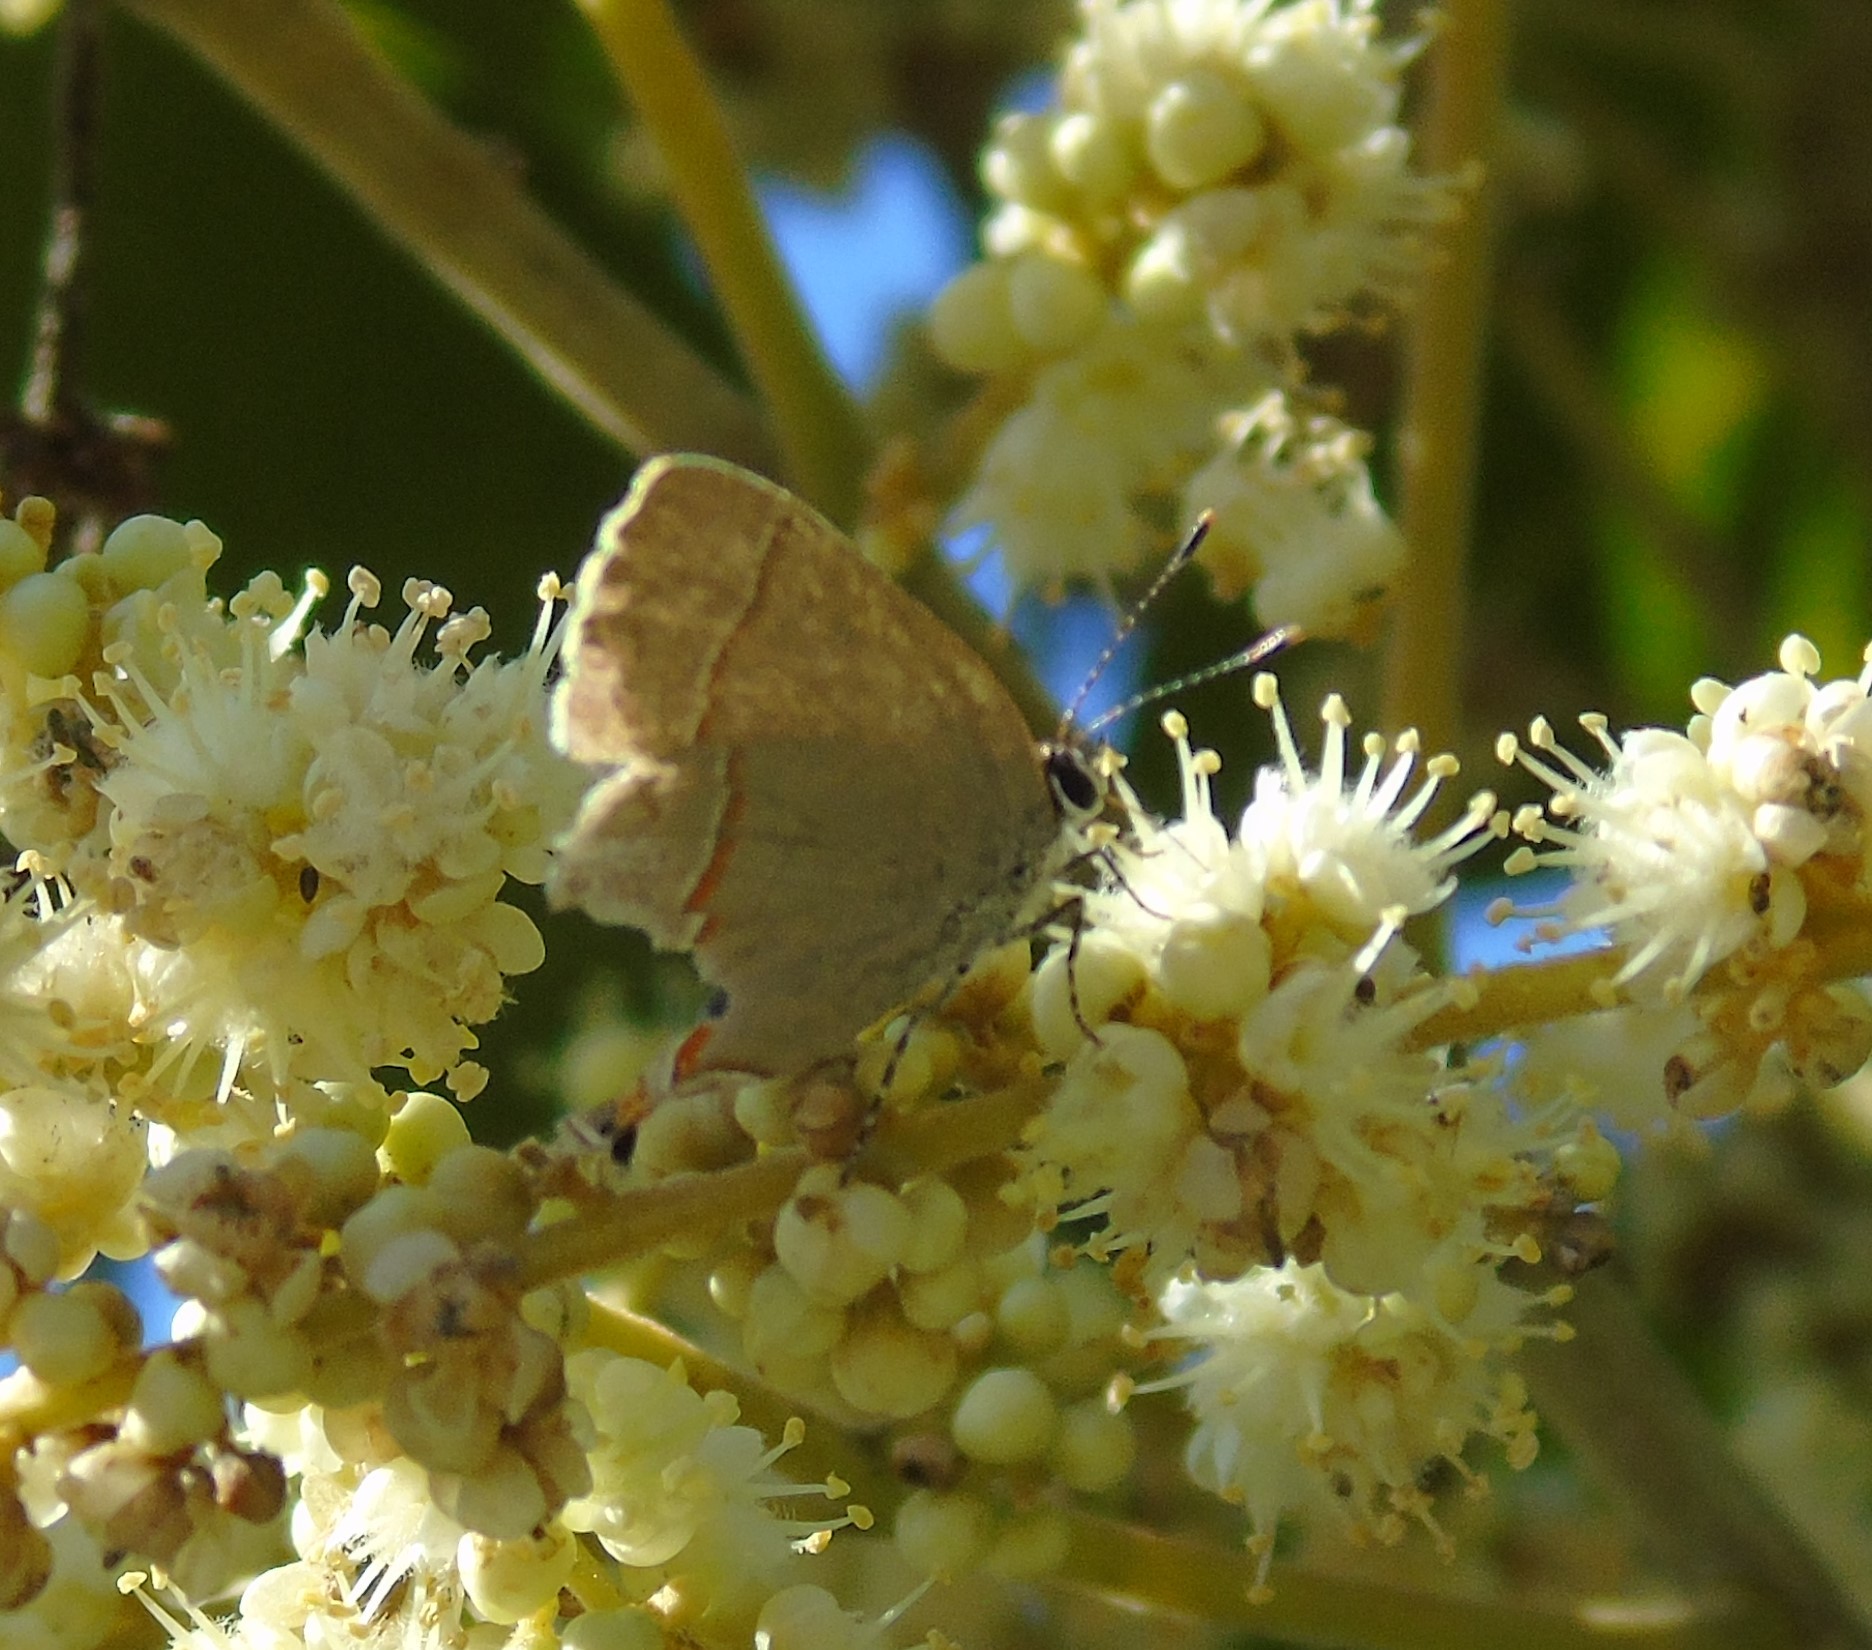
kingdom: Animalia
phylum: Arthropoda
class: Insecta
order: Lepidoptera
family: Lycaenidae
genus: Electrostrymon
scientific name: Electrostrymon endymion
